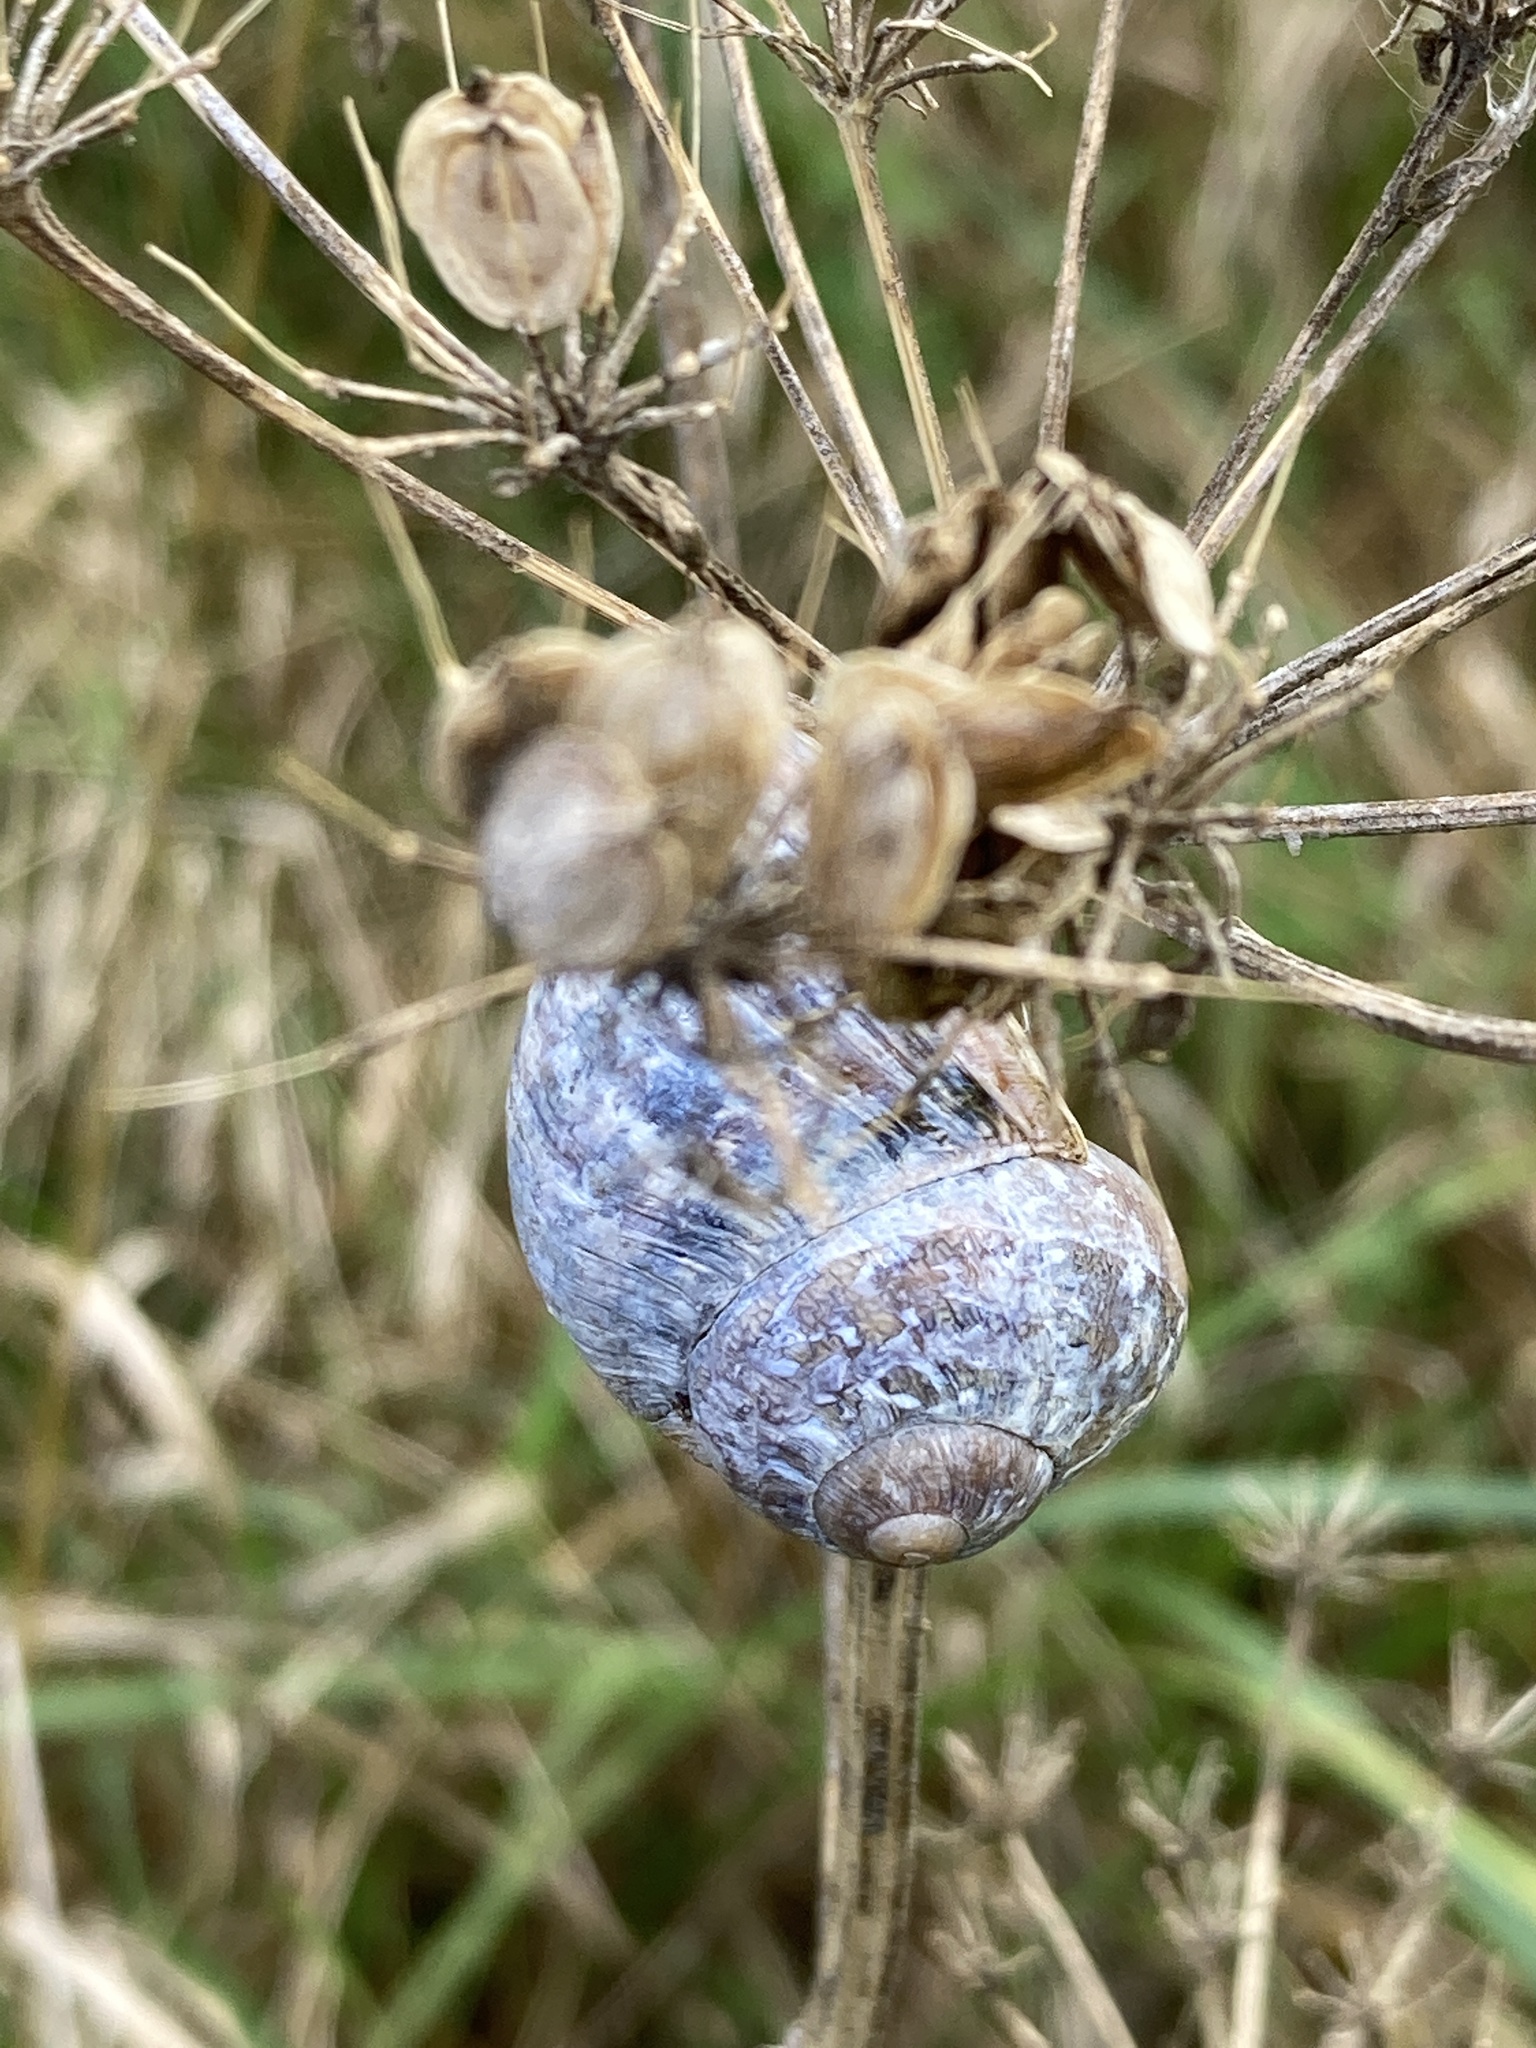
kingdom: Animalia
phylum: Mollusca
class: Gastropoda
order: Stylommatophora
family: Helicidae
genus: Cornu
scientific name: Cornu aspersum
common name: Brown garden snail
